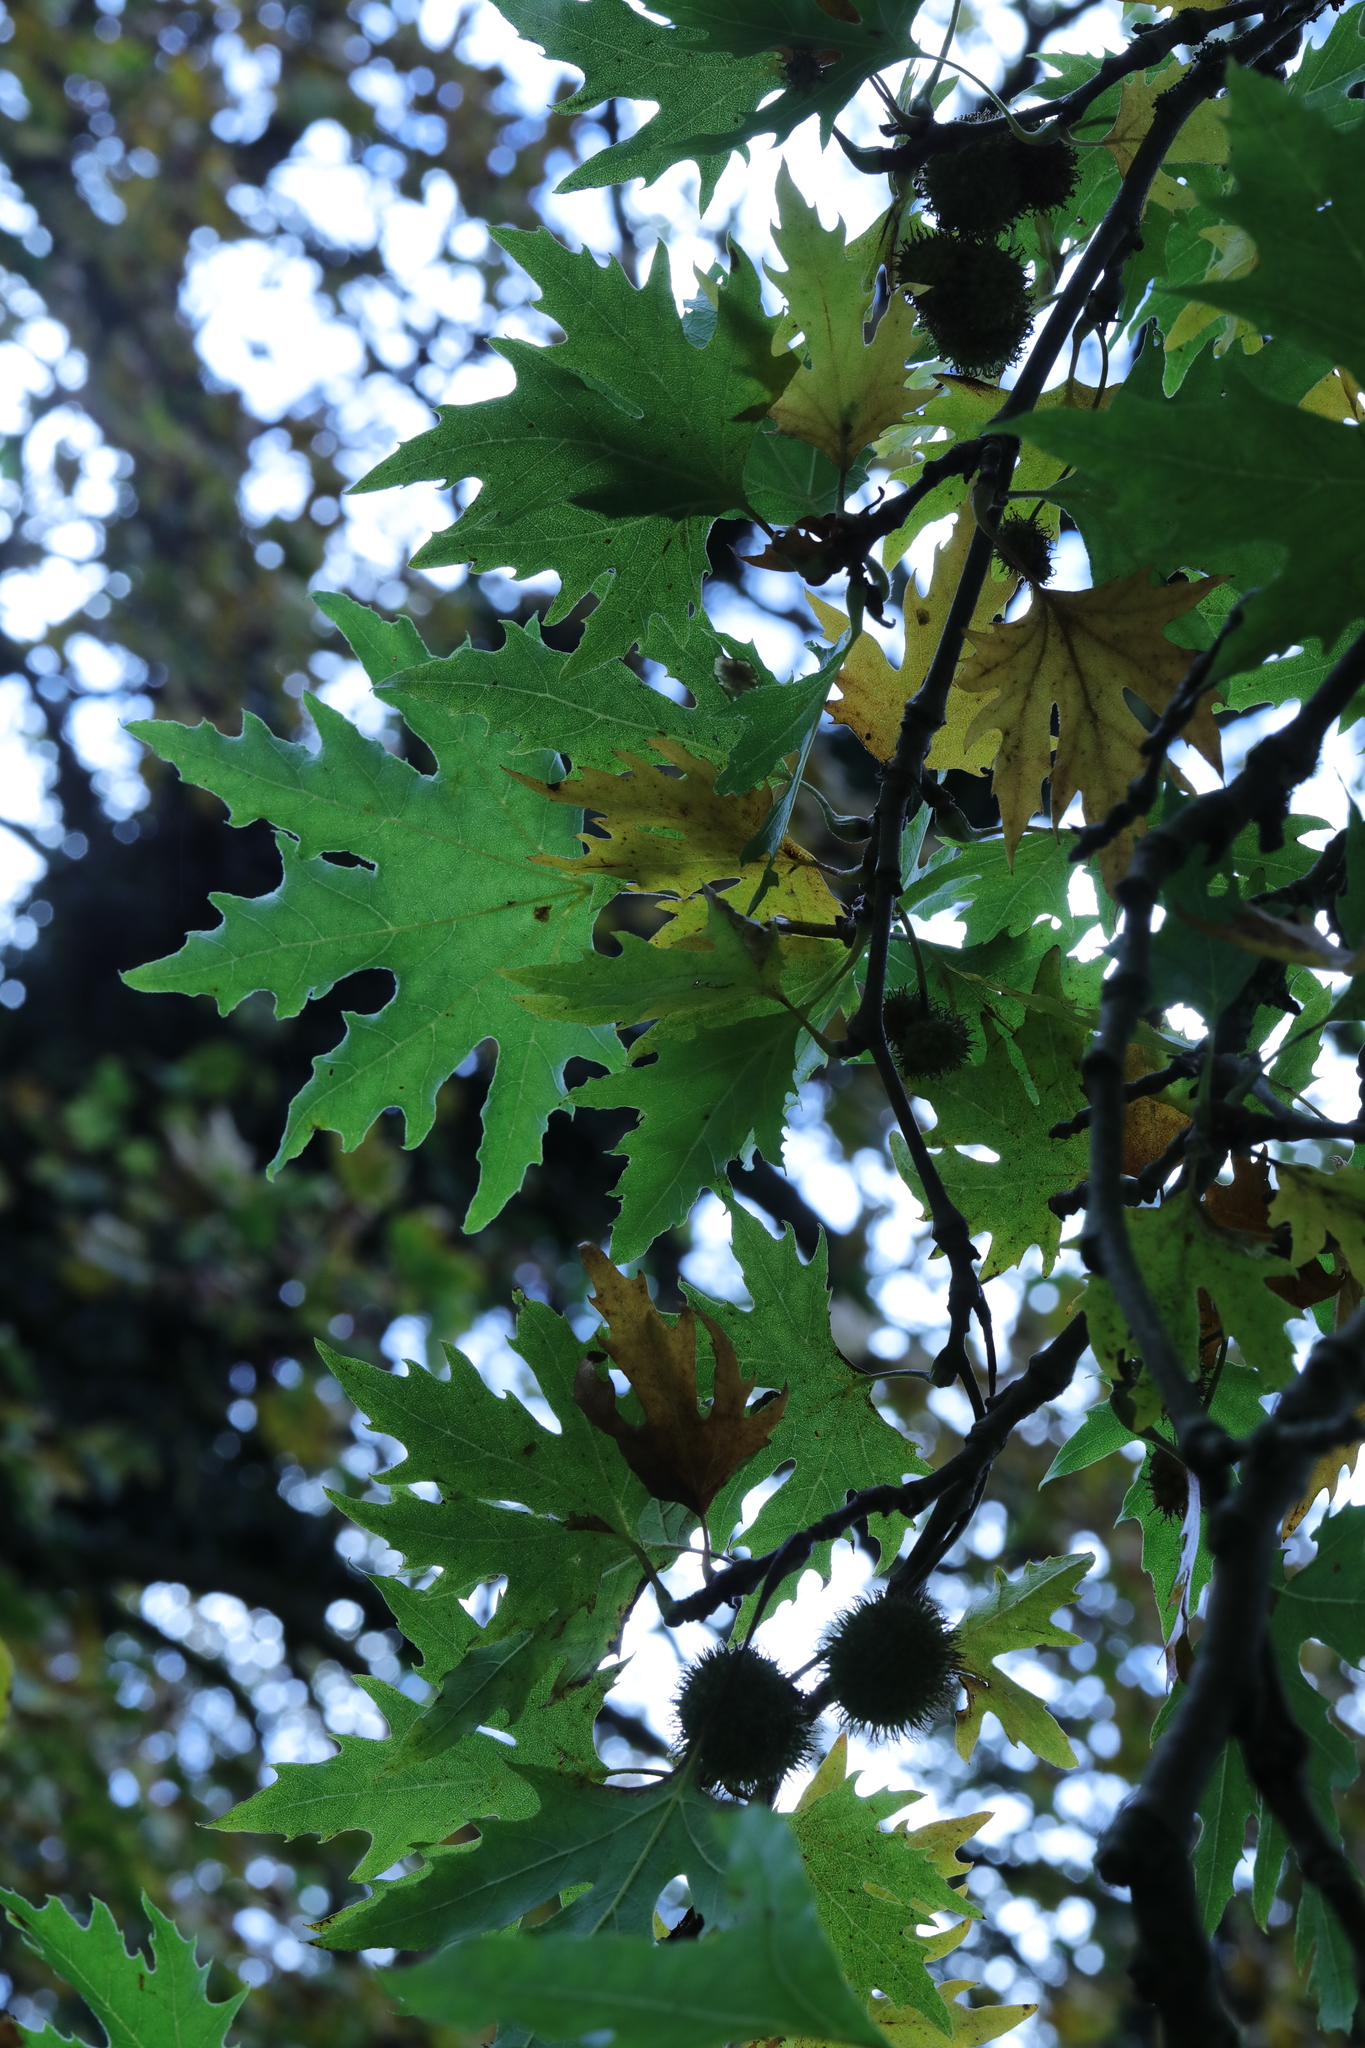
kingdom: Plantae
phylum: Tracheophyta
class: Magnoliopsida
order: Proteales
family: Platanaceae
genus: Platanus
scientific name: Platanus orientalis
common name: Oriental plane
